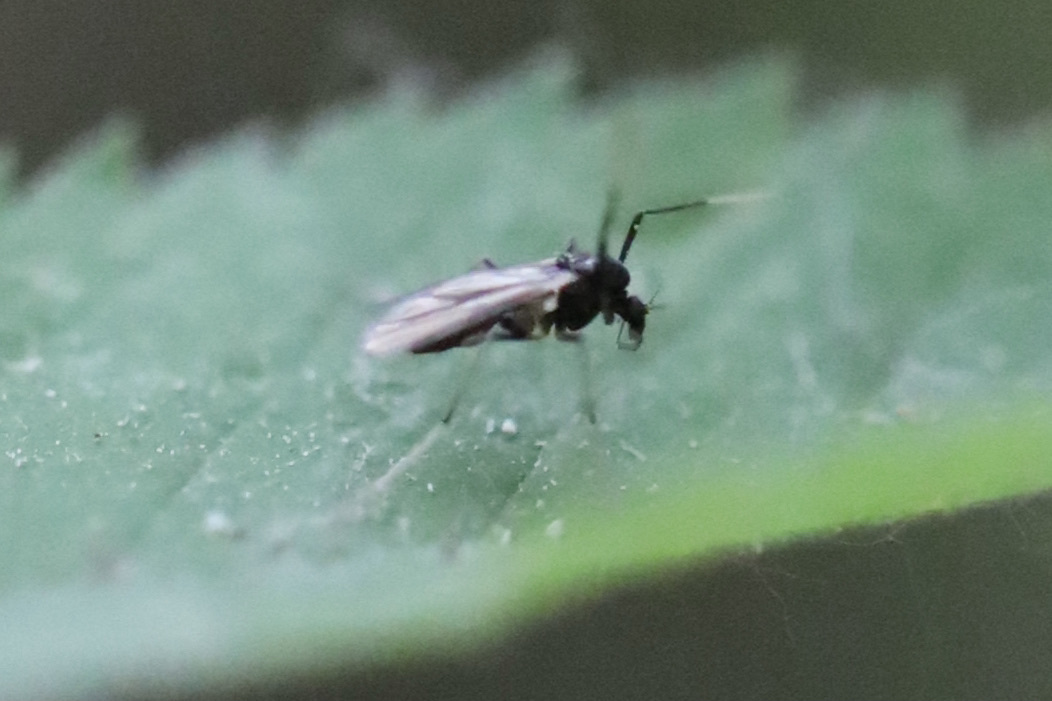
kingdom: Animalia
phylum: Arthropoda
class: Insecta
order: Diptera
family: Chironomidae
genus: Paratendipes
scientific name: Paratendipes albimanus
